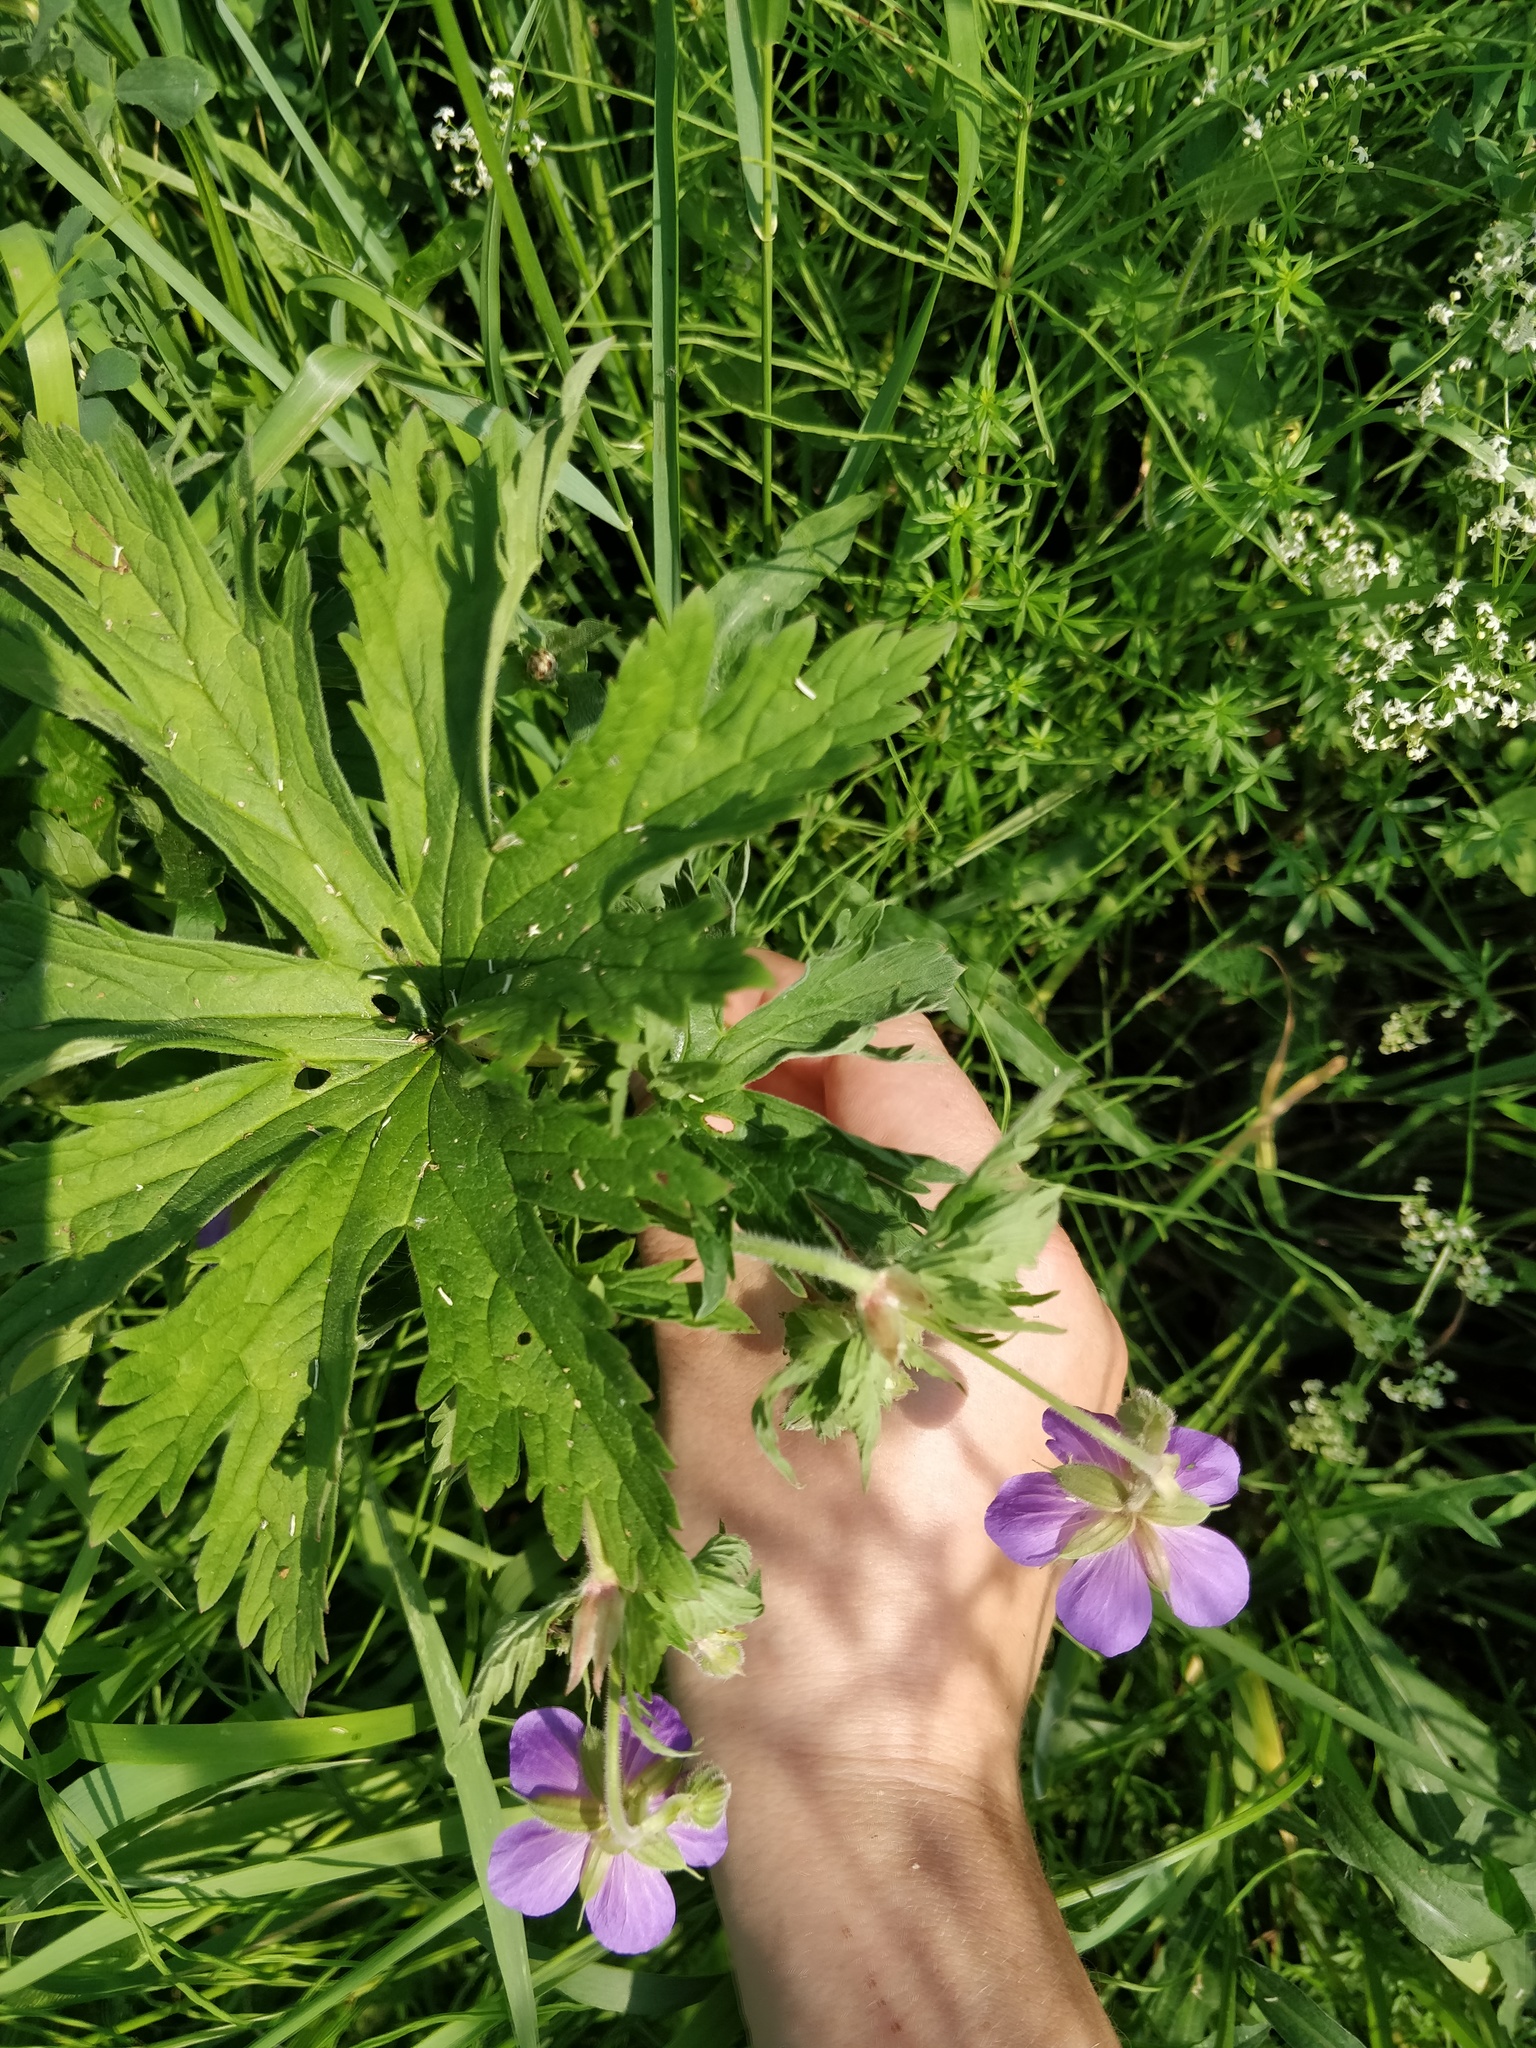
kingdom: Plantae
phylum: Tracheophyta
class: Magnoliopsida
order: Geraniales
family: Geraniaceae
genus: Geranium
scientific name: Geranium pratense
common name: Meadow crane's-bill
